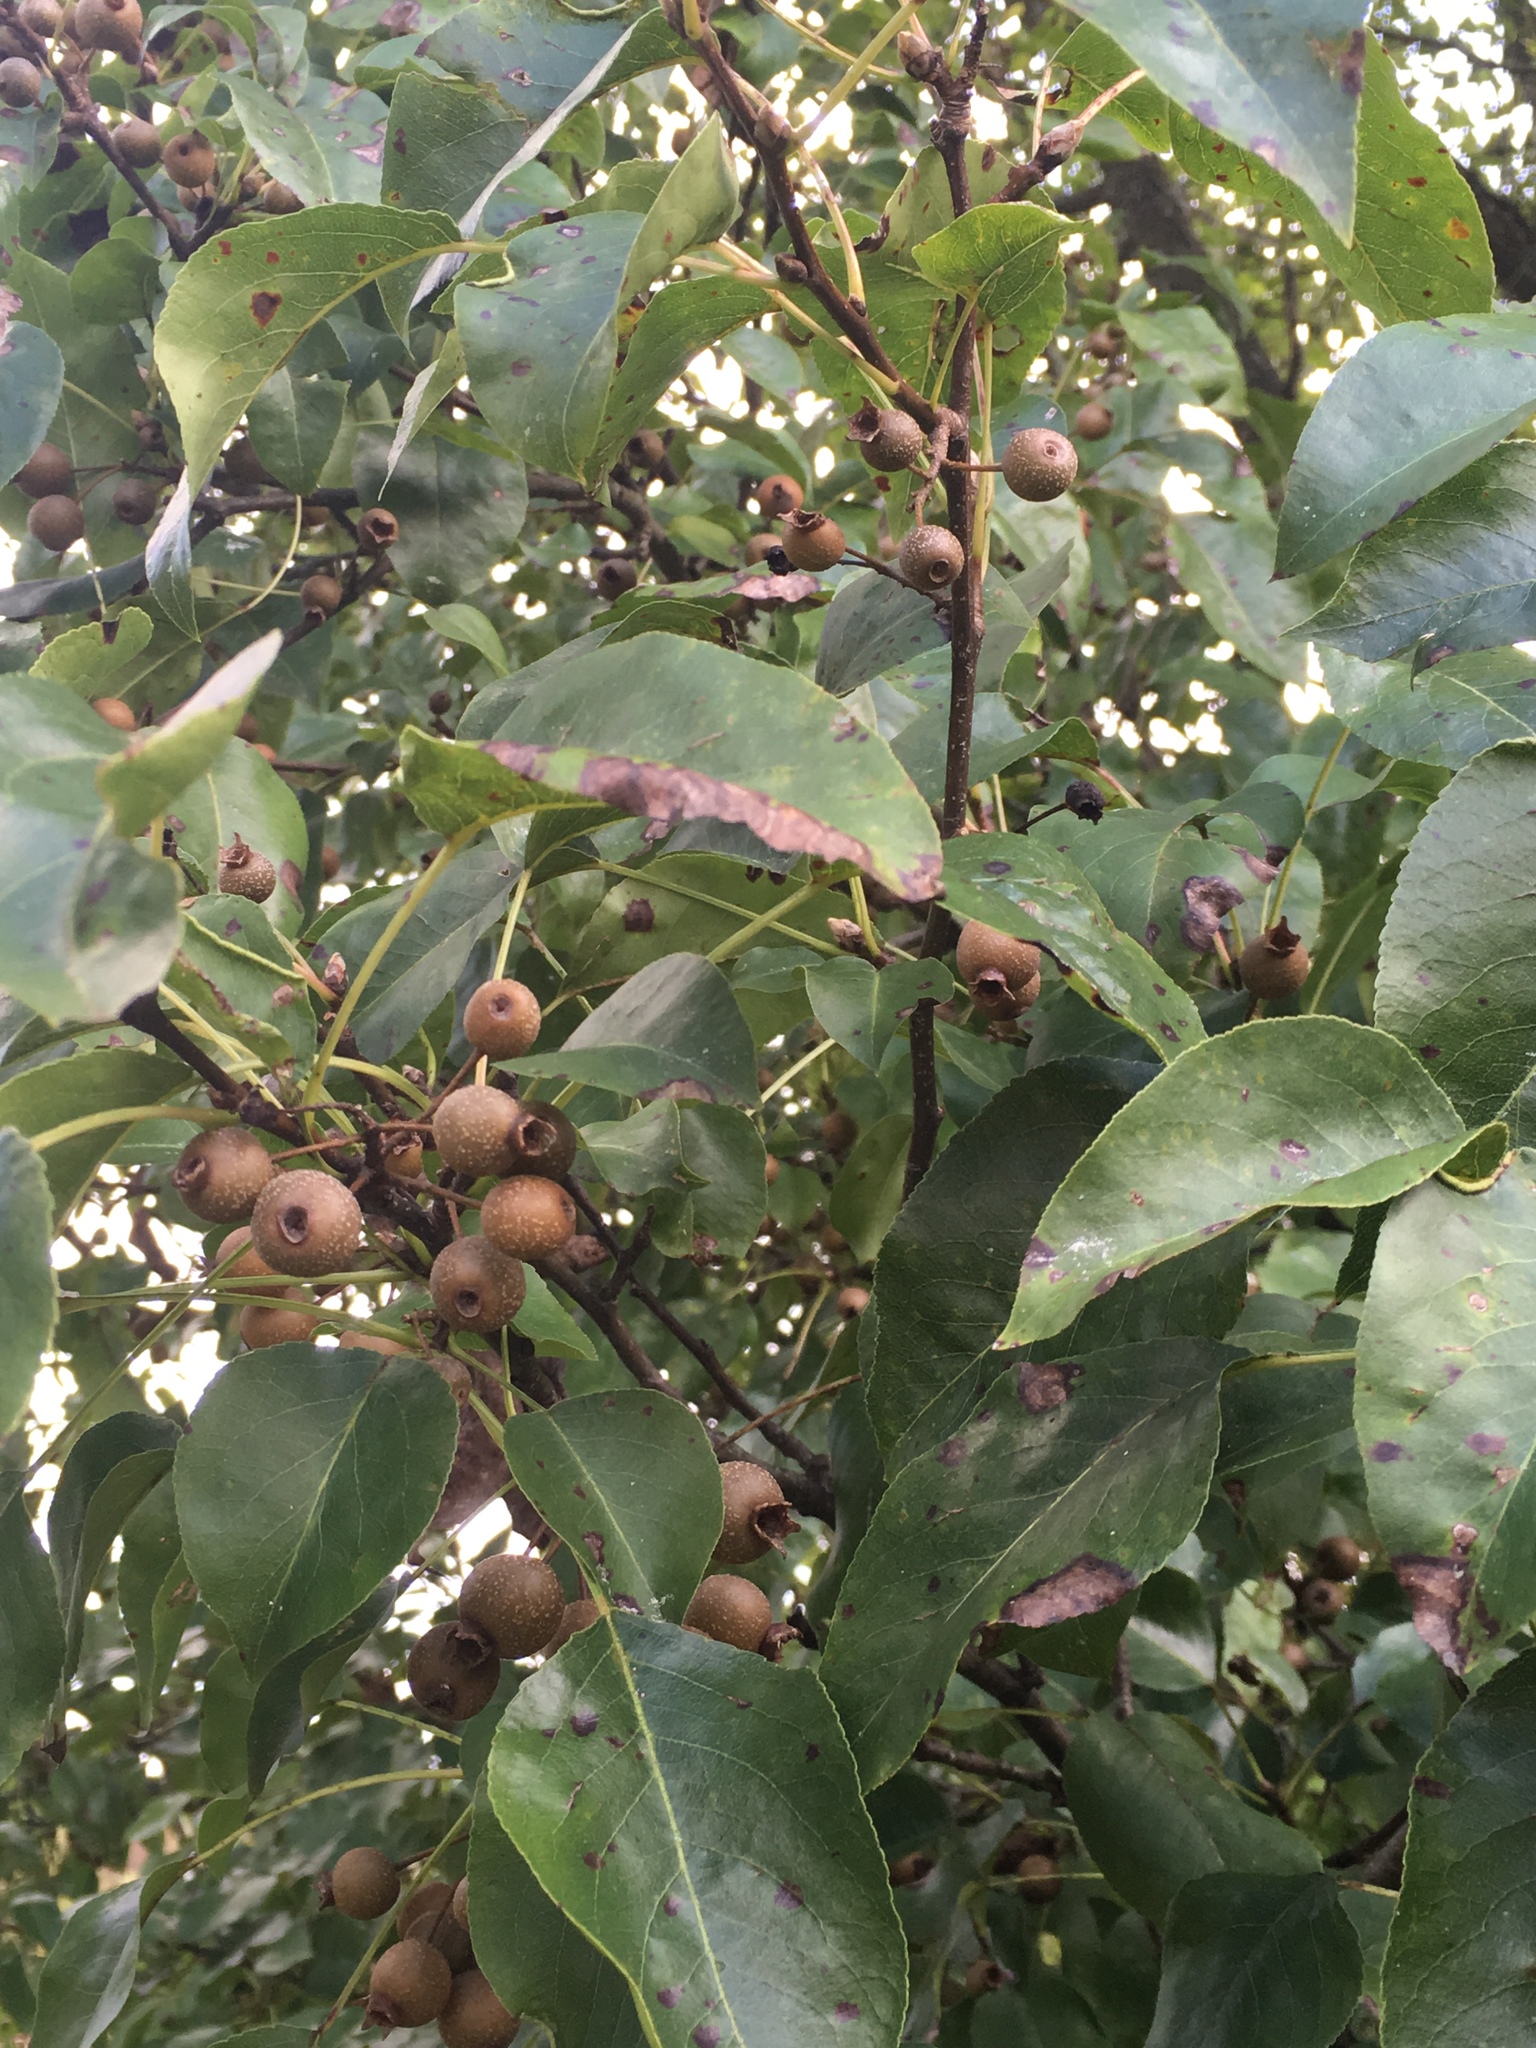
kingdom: Plantae
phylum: Tracheophyta
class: Magnoliopsida
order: Rosales
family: Rosaceae
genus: Pyrus
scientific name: Pyrus calleryana
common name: Callery pear
